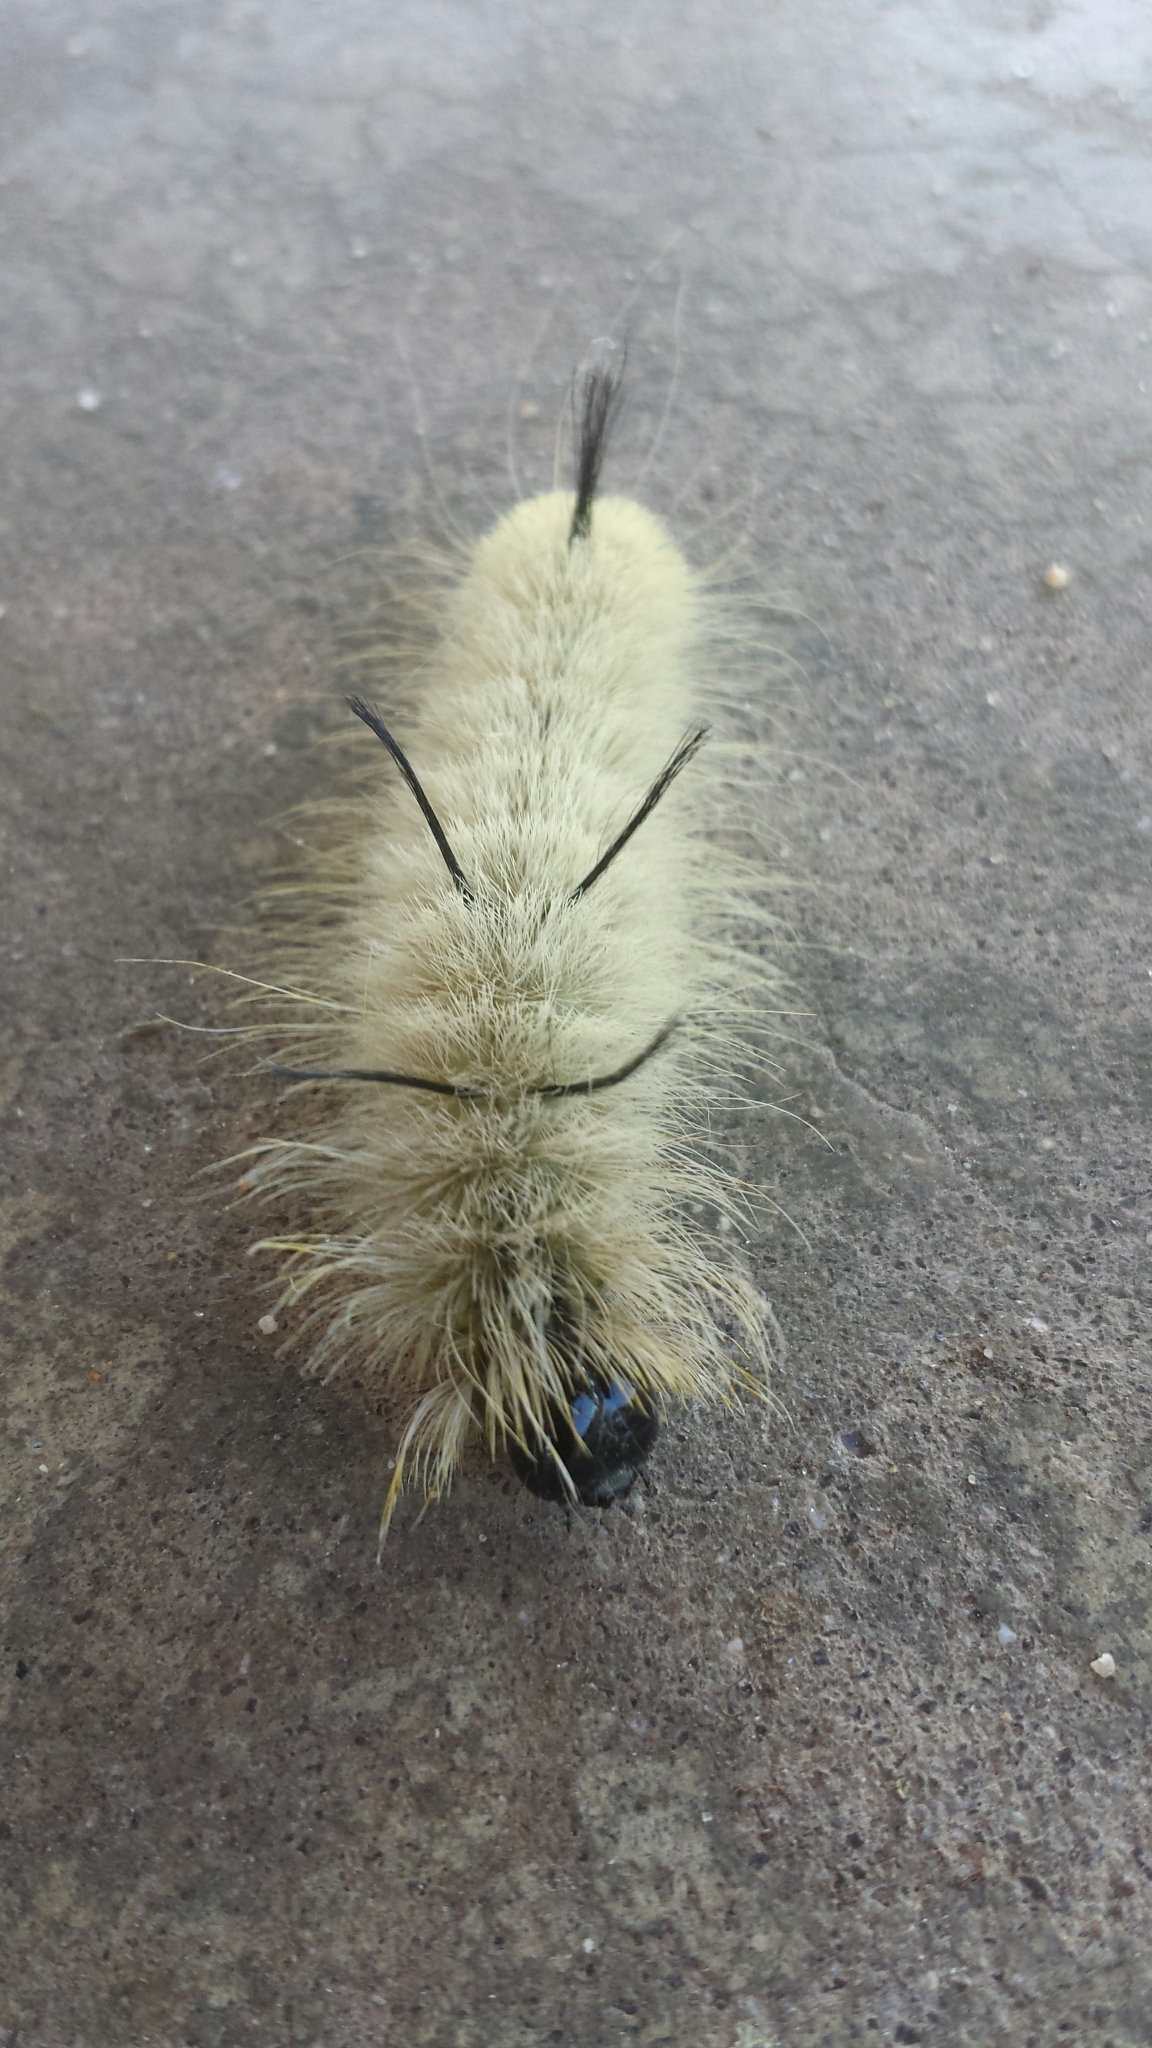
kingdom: Animalia
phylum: Arthropoda
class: Insecta
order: Lepidoptera
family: Noctuidae
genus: Acronicta
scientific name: Acronicta americana
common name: American dagger
